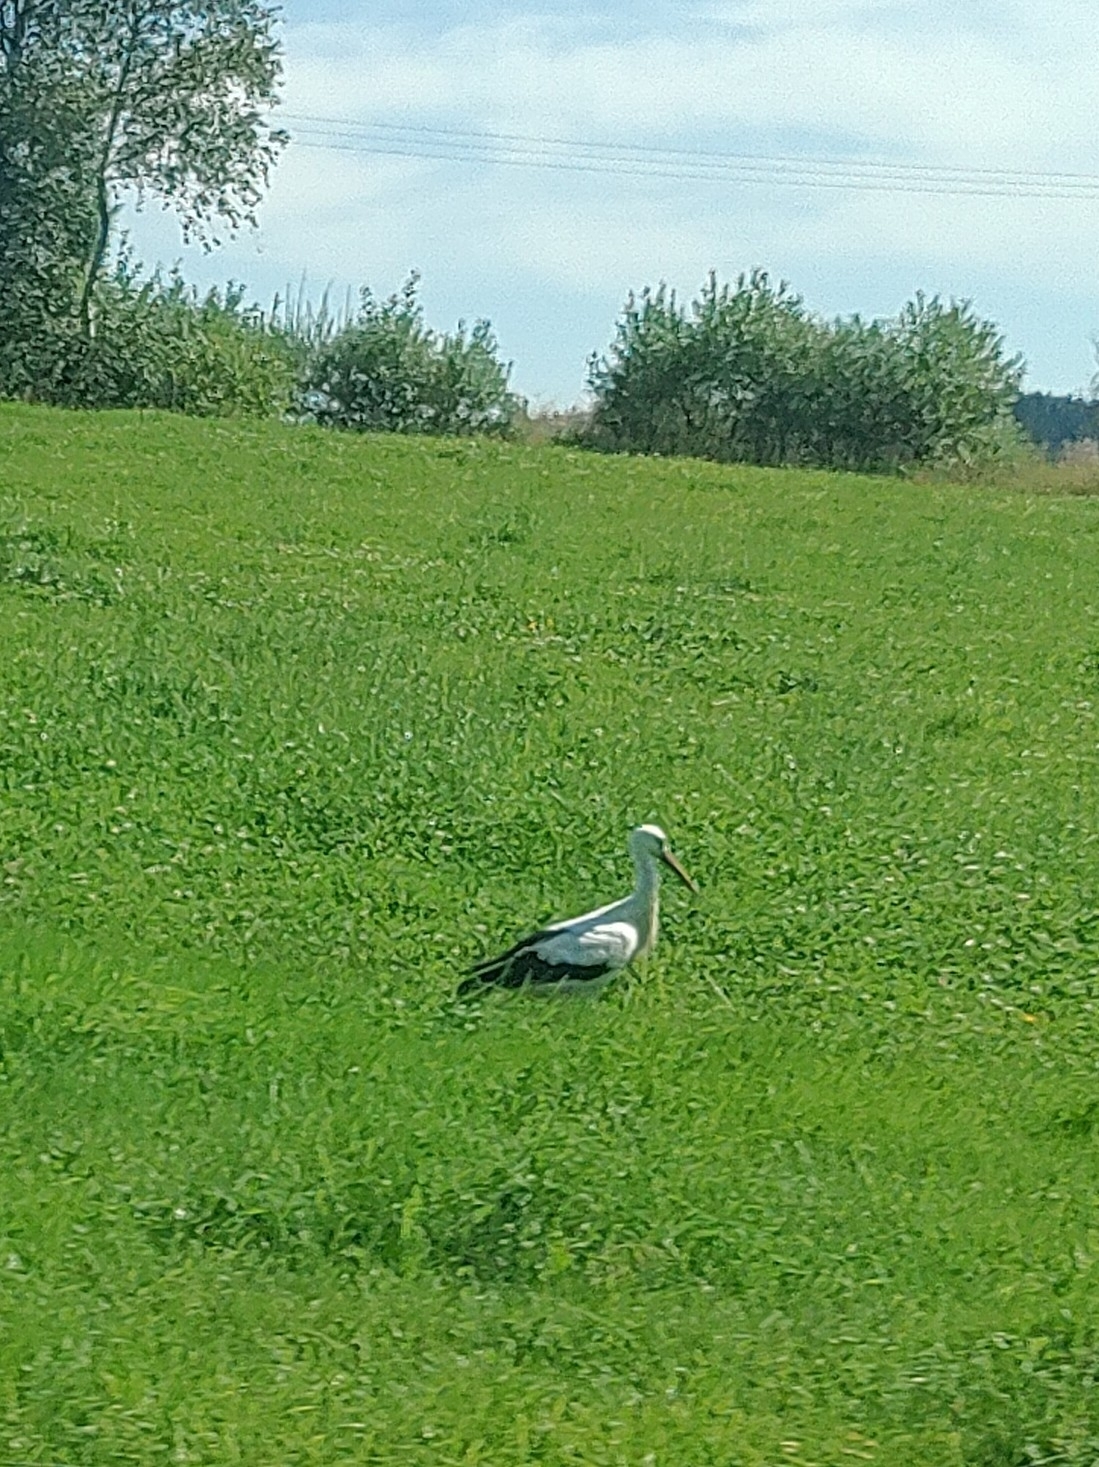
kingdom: Animalia
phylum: Chordata
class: Aves
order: Ciconiiformes
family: Ciconiidae
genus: Ciconia
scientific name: Ciconia ciconia
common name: White stork
